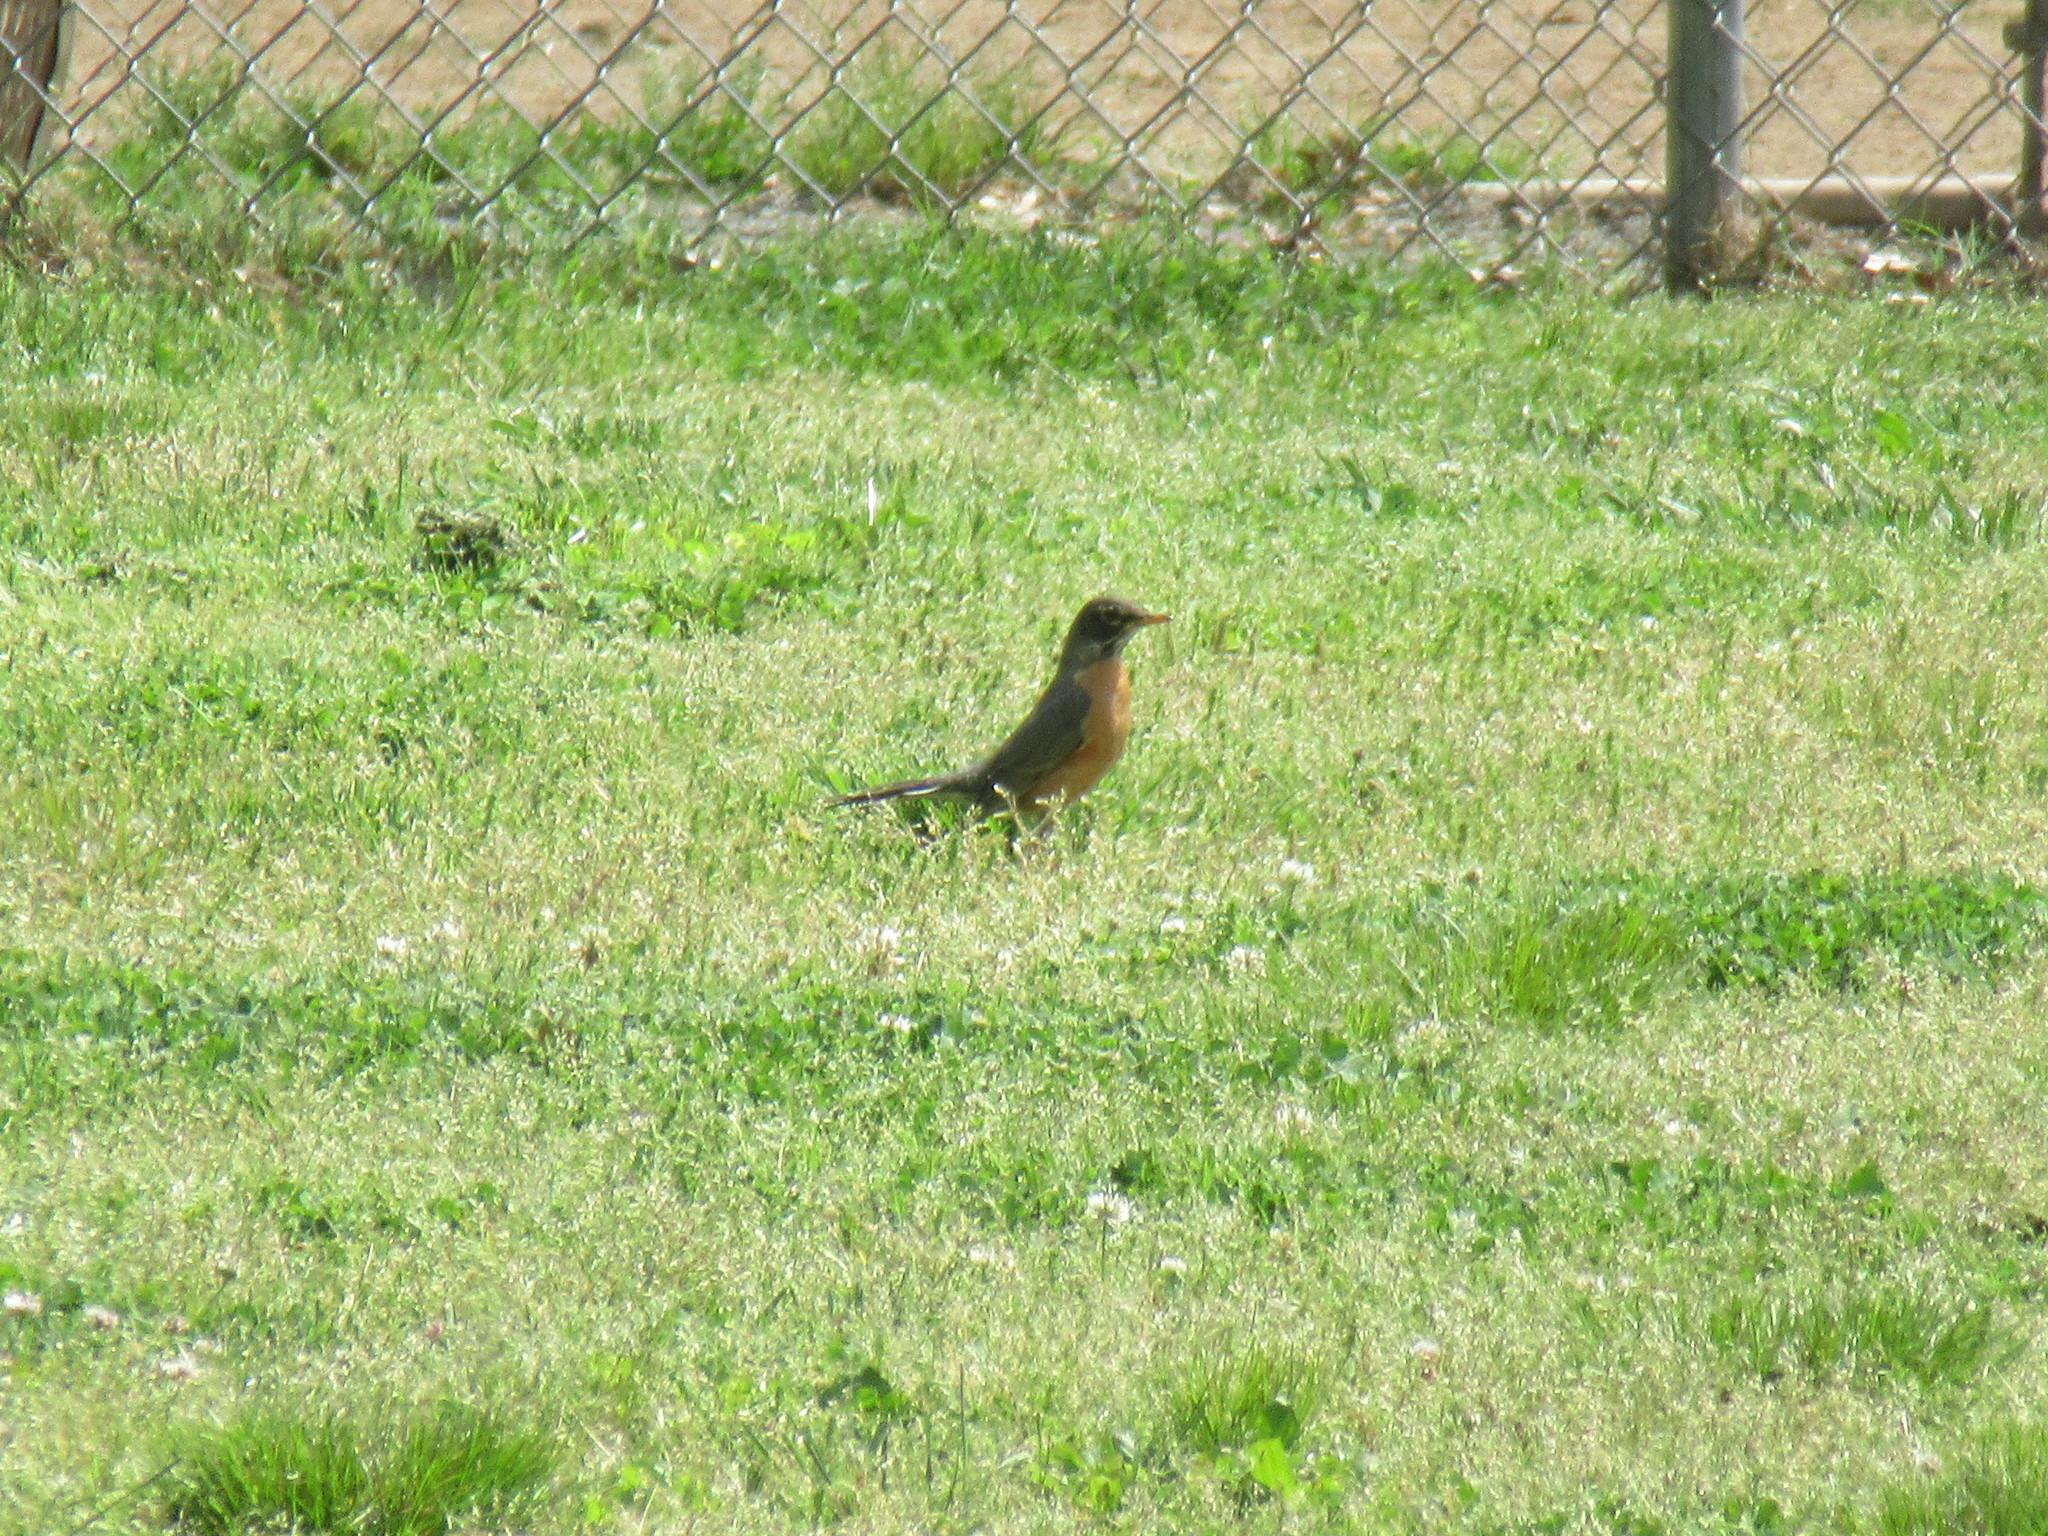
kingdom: Animalia
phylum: Chordata
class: Aves
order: Passeriformes
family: Turdidae
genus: Turdus
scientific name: Turdus migratorius
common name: American robin
